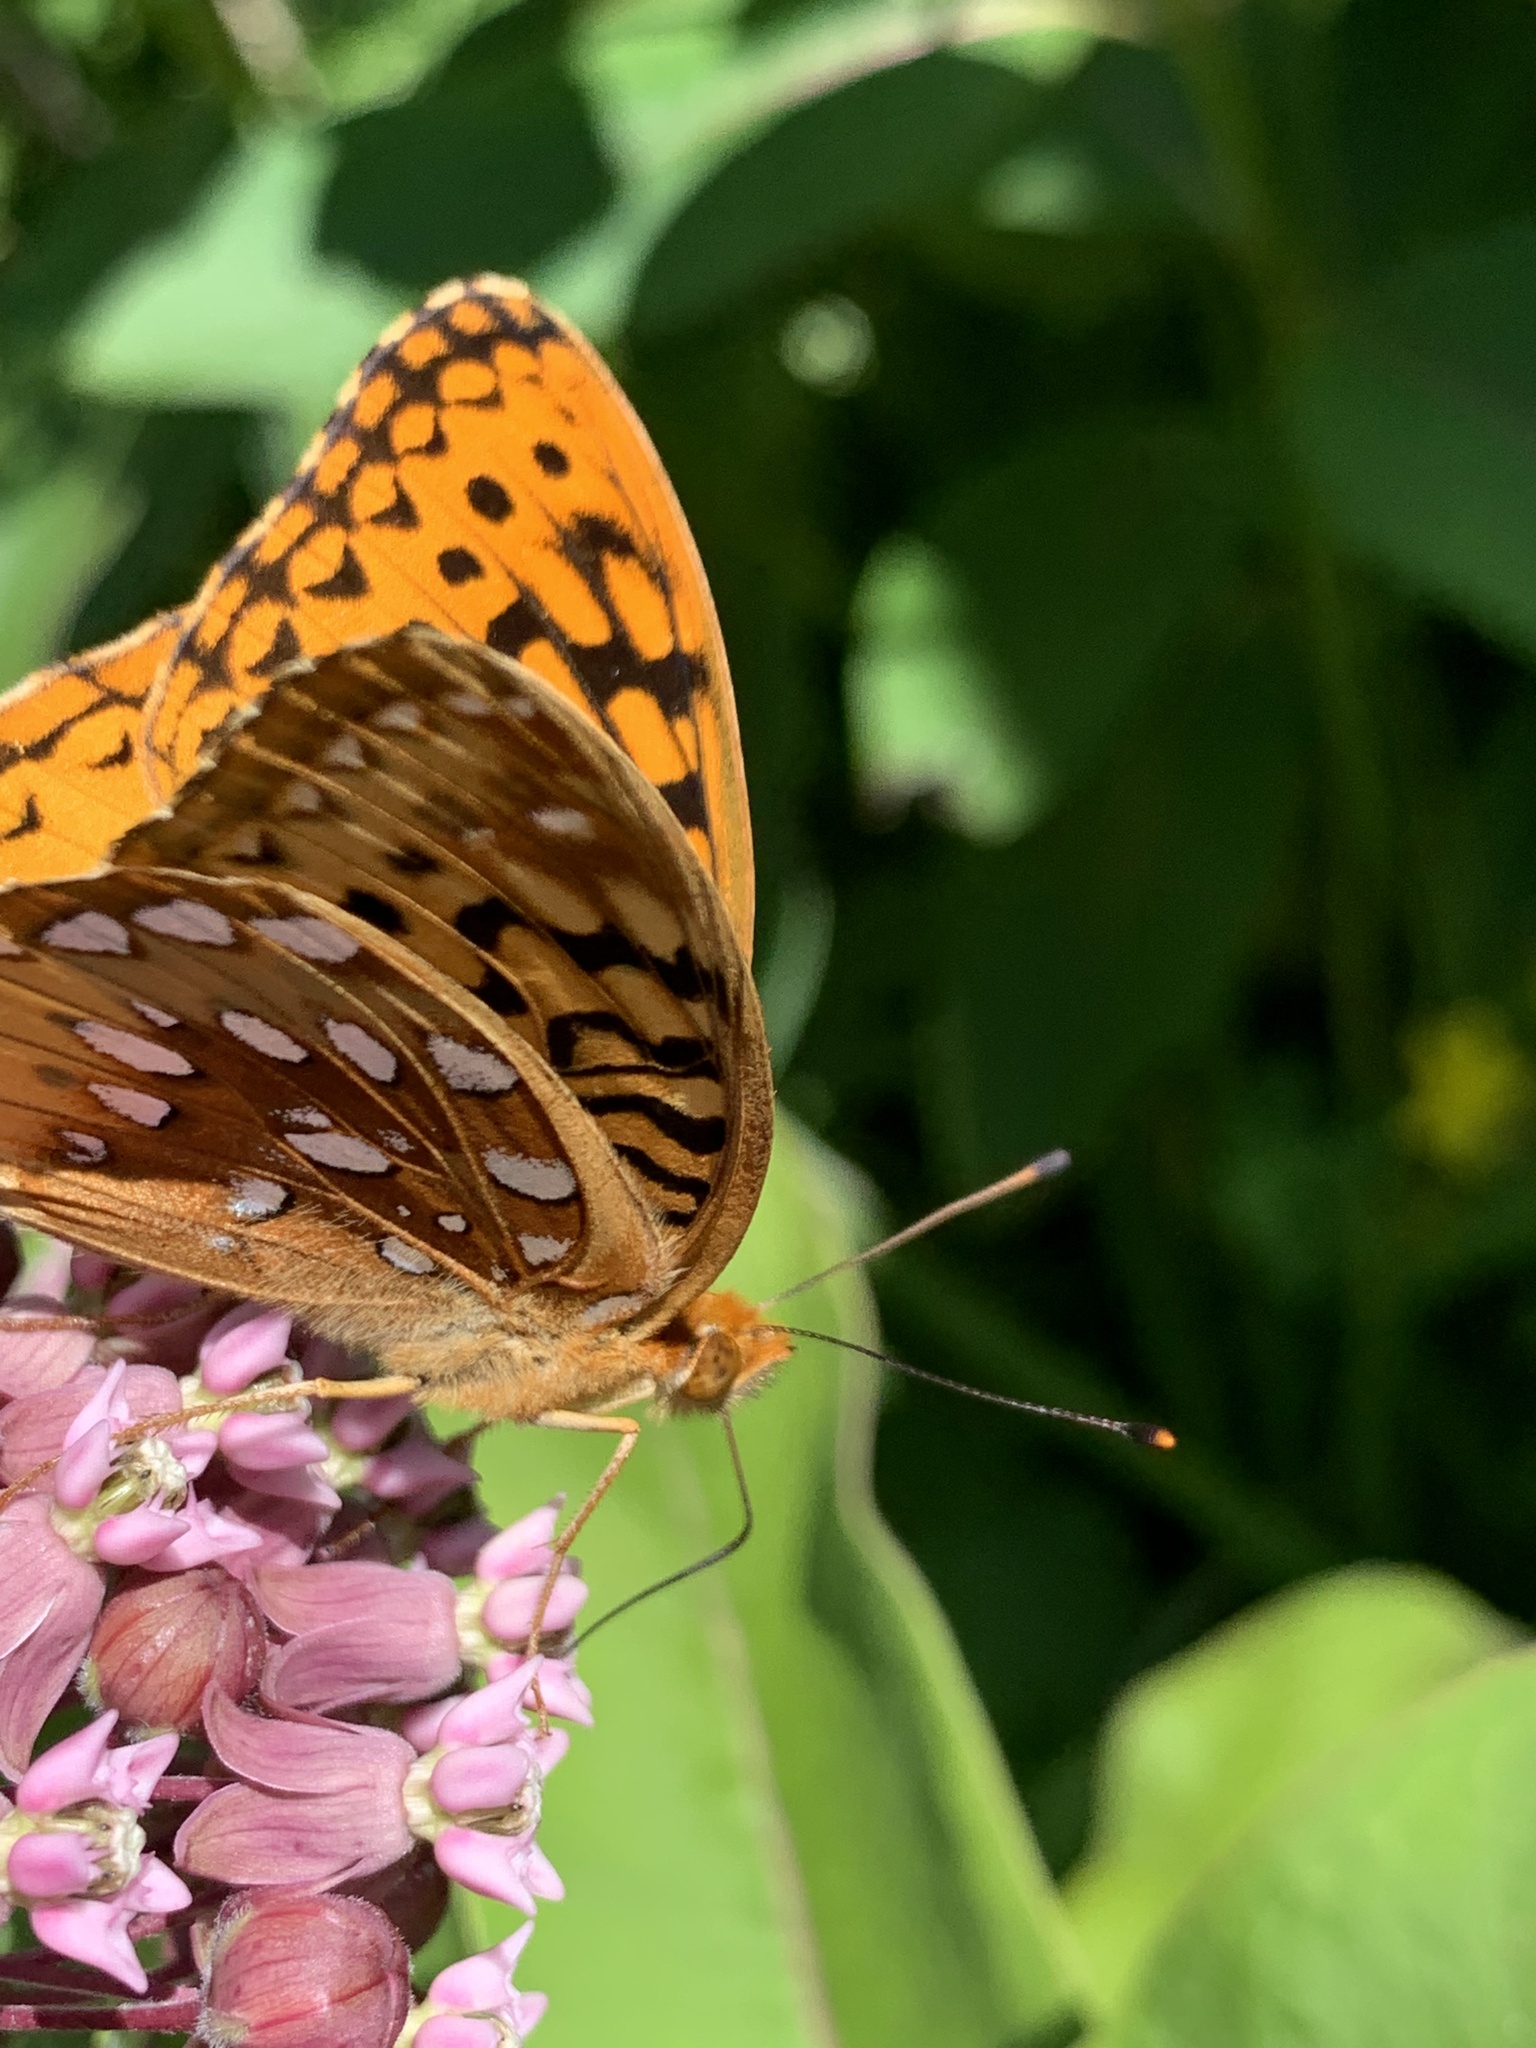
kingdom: Animalia
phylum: Arthropoda
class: Insecta
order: Lepidoptera
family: Nymphalidae
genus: Speyeria
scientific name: Speyeria cybele
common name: Great spangled fritillary
